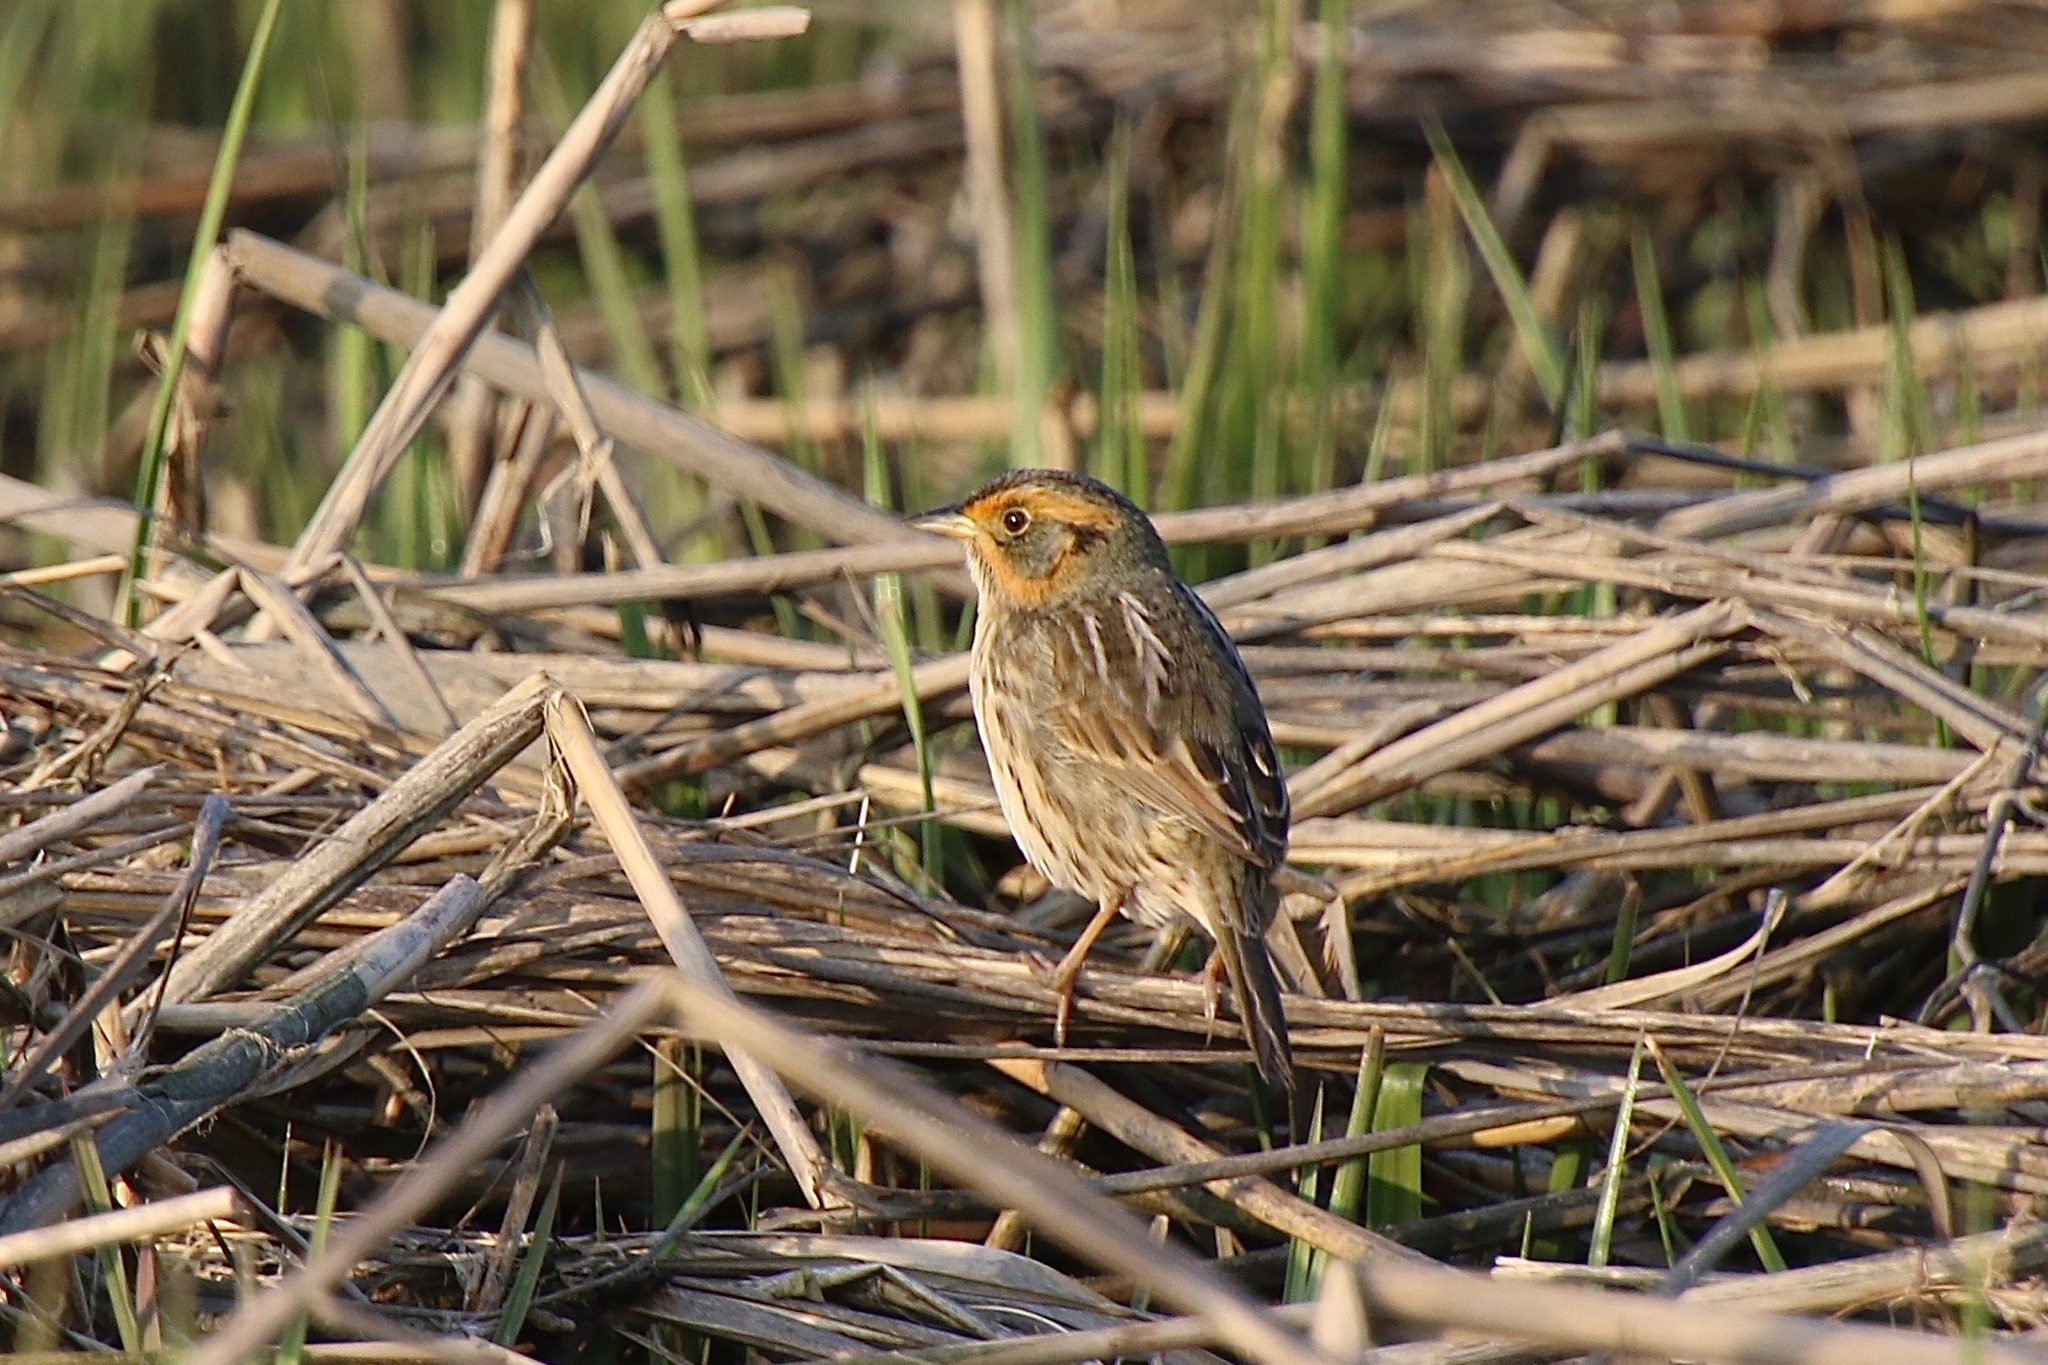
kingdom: Animalia
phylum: Chordata
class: Aves
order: Passeriformes
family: Passerellidae
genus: Ammospiza
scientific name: Ammospiza caudacuta
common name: Saltmarsh sparrow
